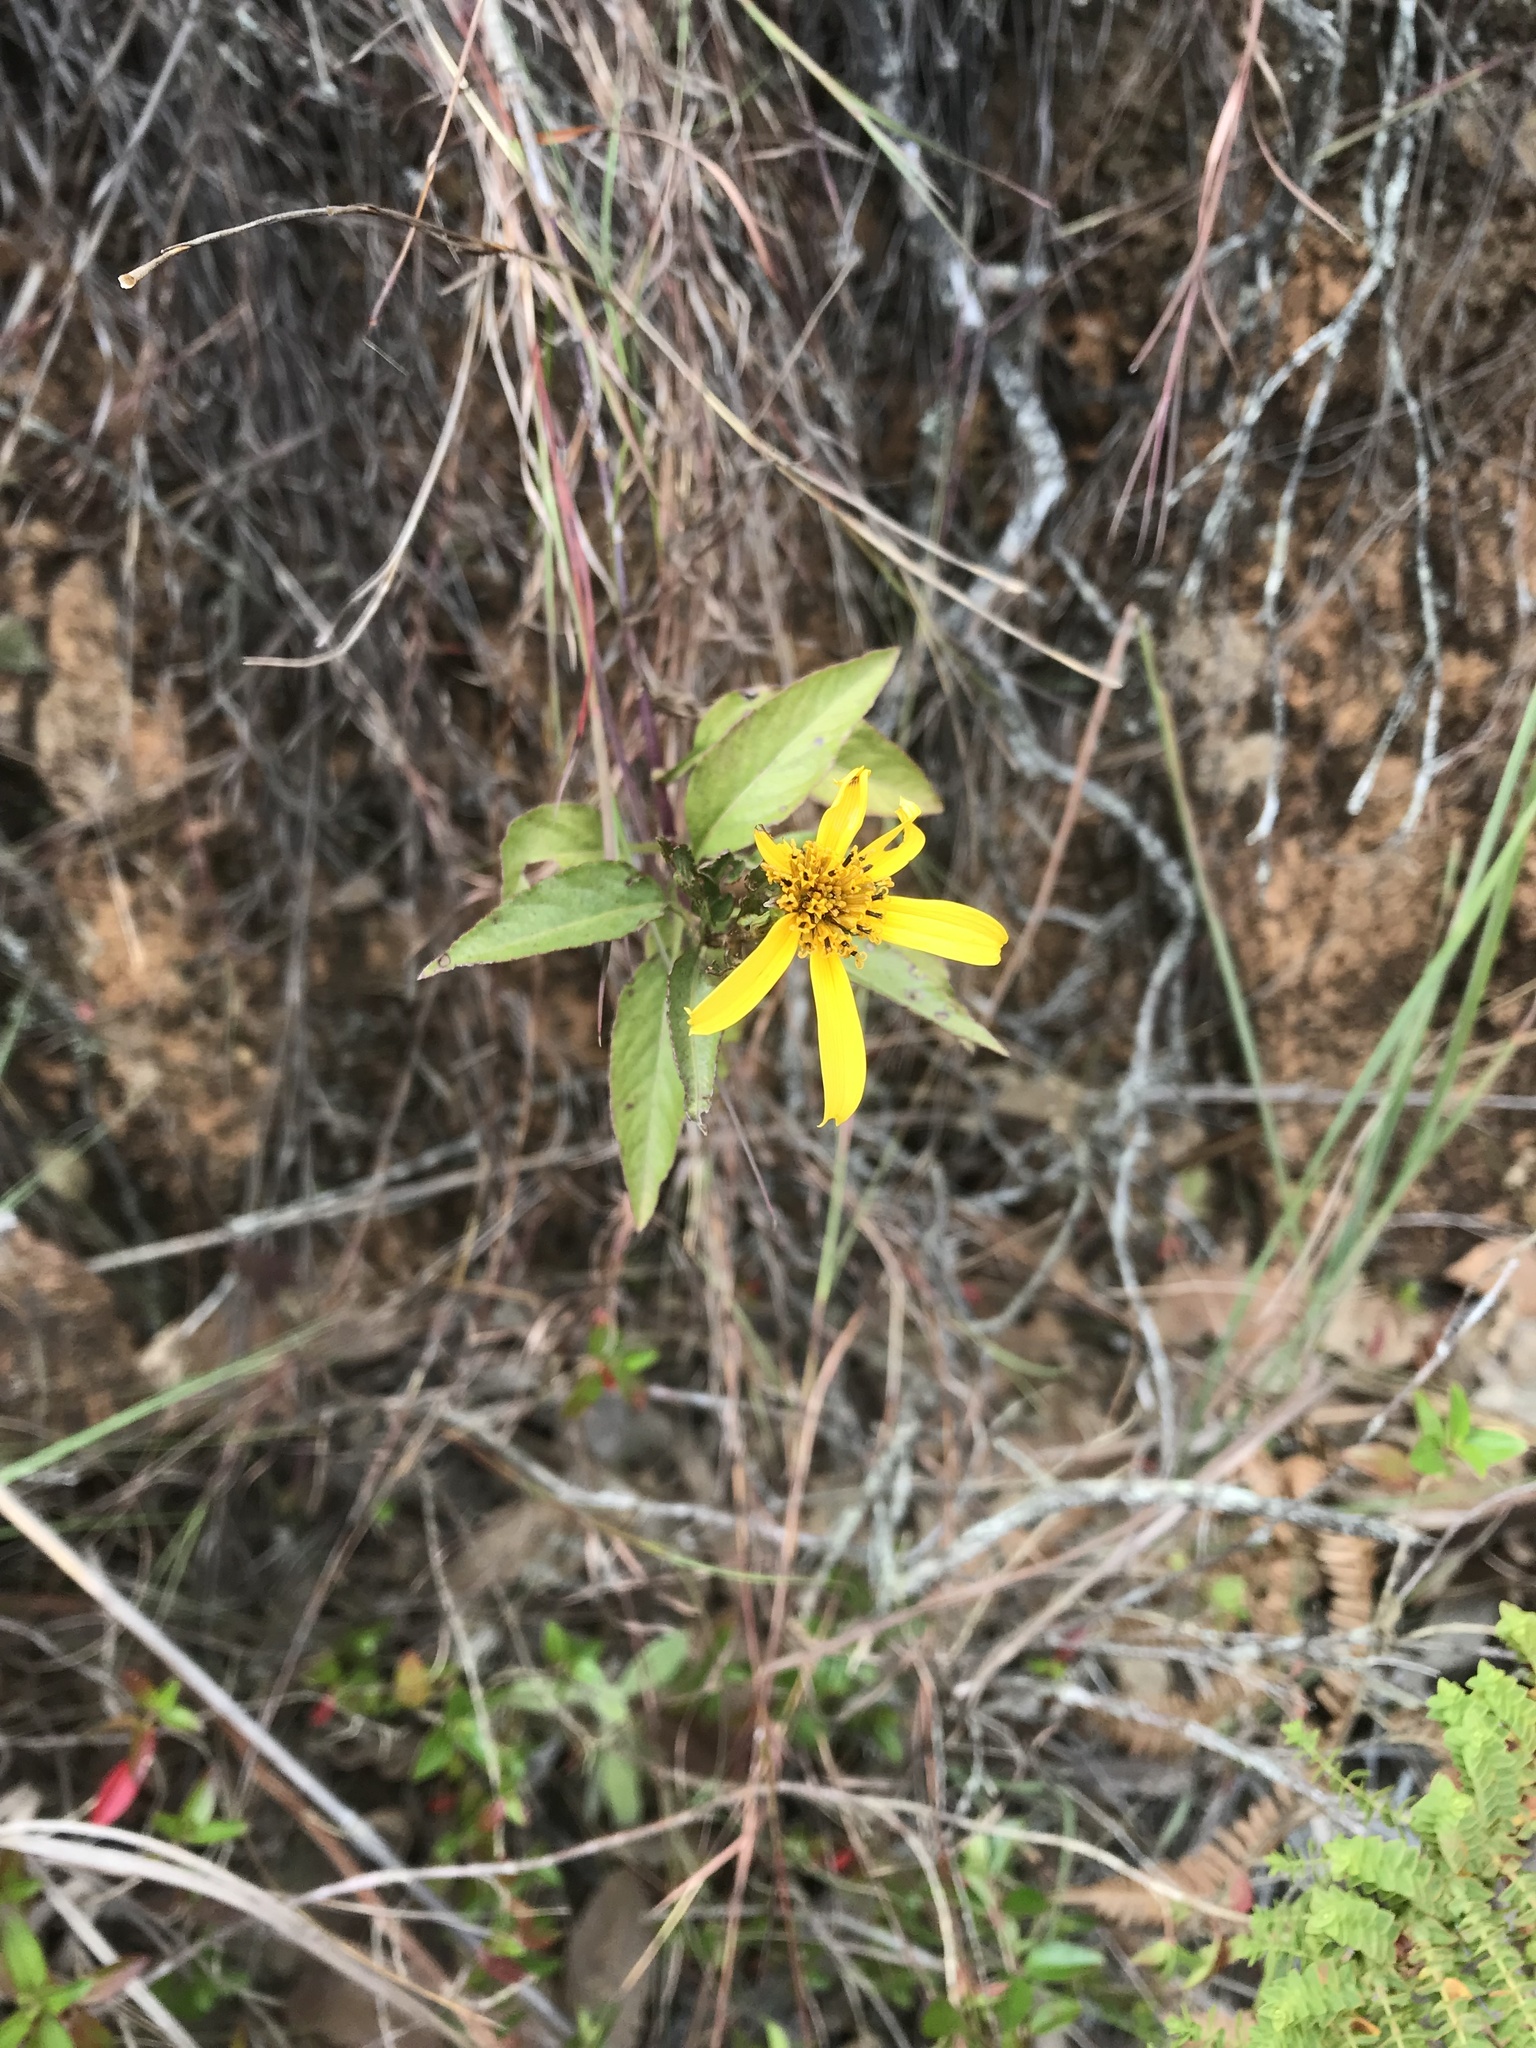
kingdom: Plantae
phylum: Tracheophyta
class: Magnoliopsida
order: Asterales
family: Asteraceae
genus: Bidens
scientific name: Bidens rubifolia
